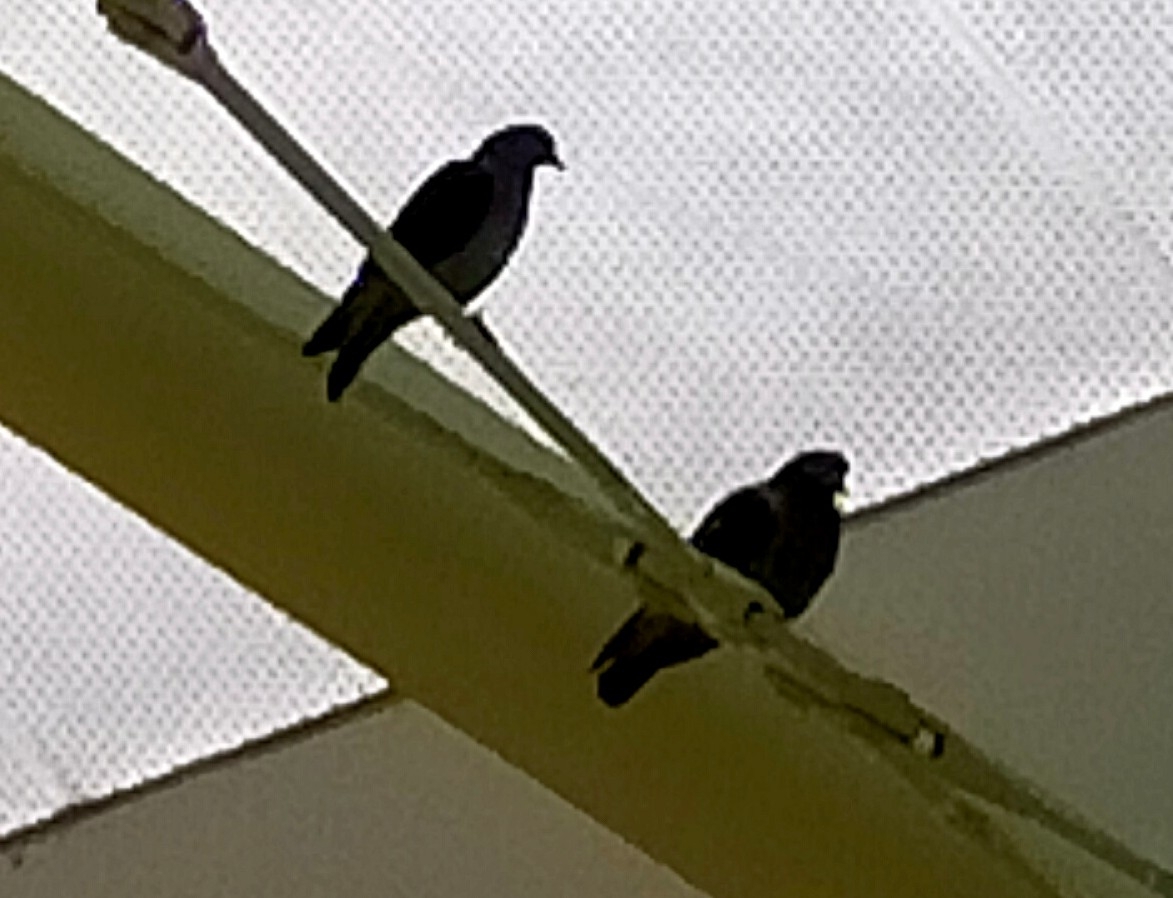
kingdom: Animalia
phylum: Chordata
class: Aves
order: Columbiformes
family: Columbidae
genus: Columba
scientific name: Columba livia
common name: Rock pigeon
